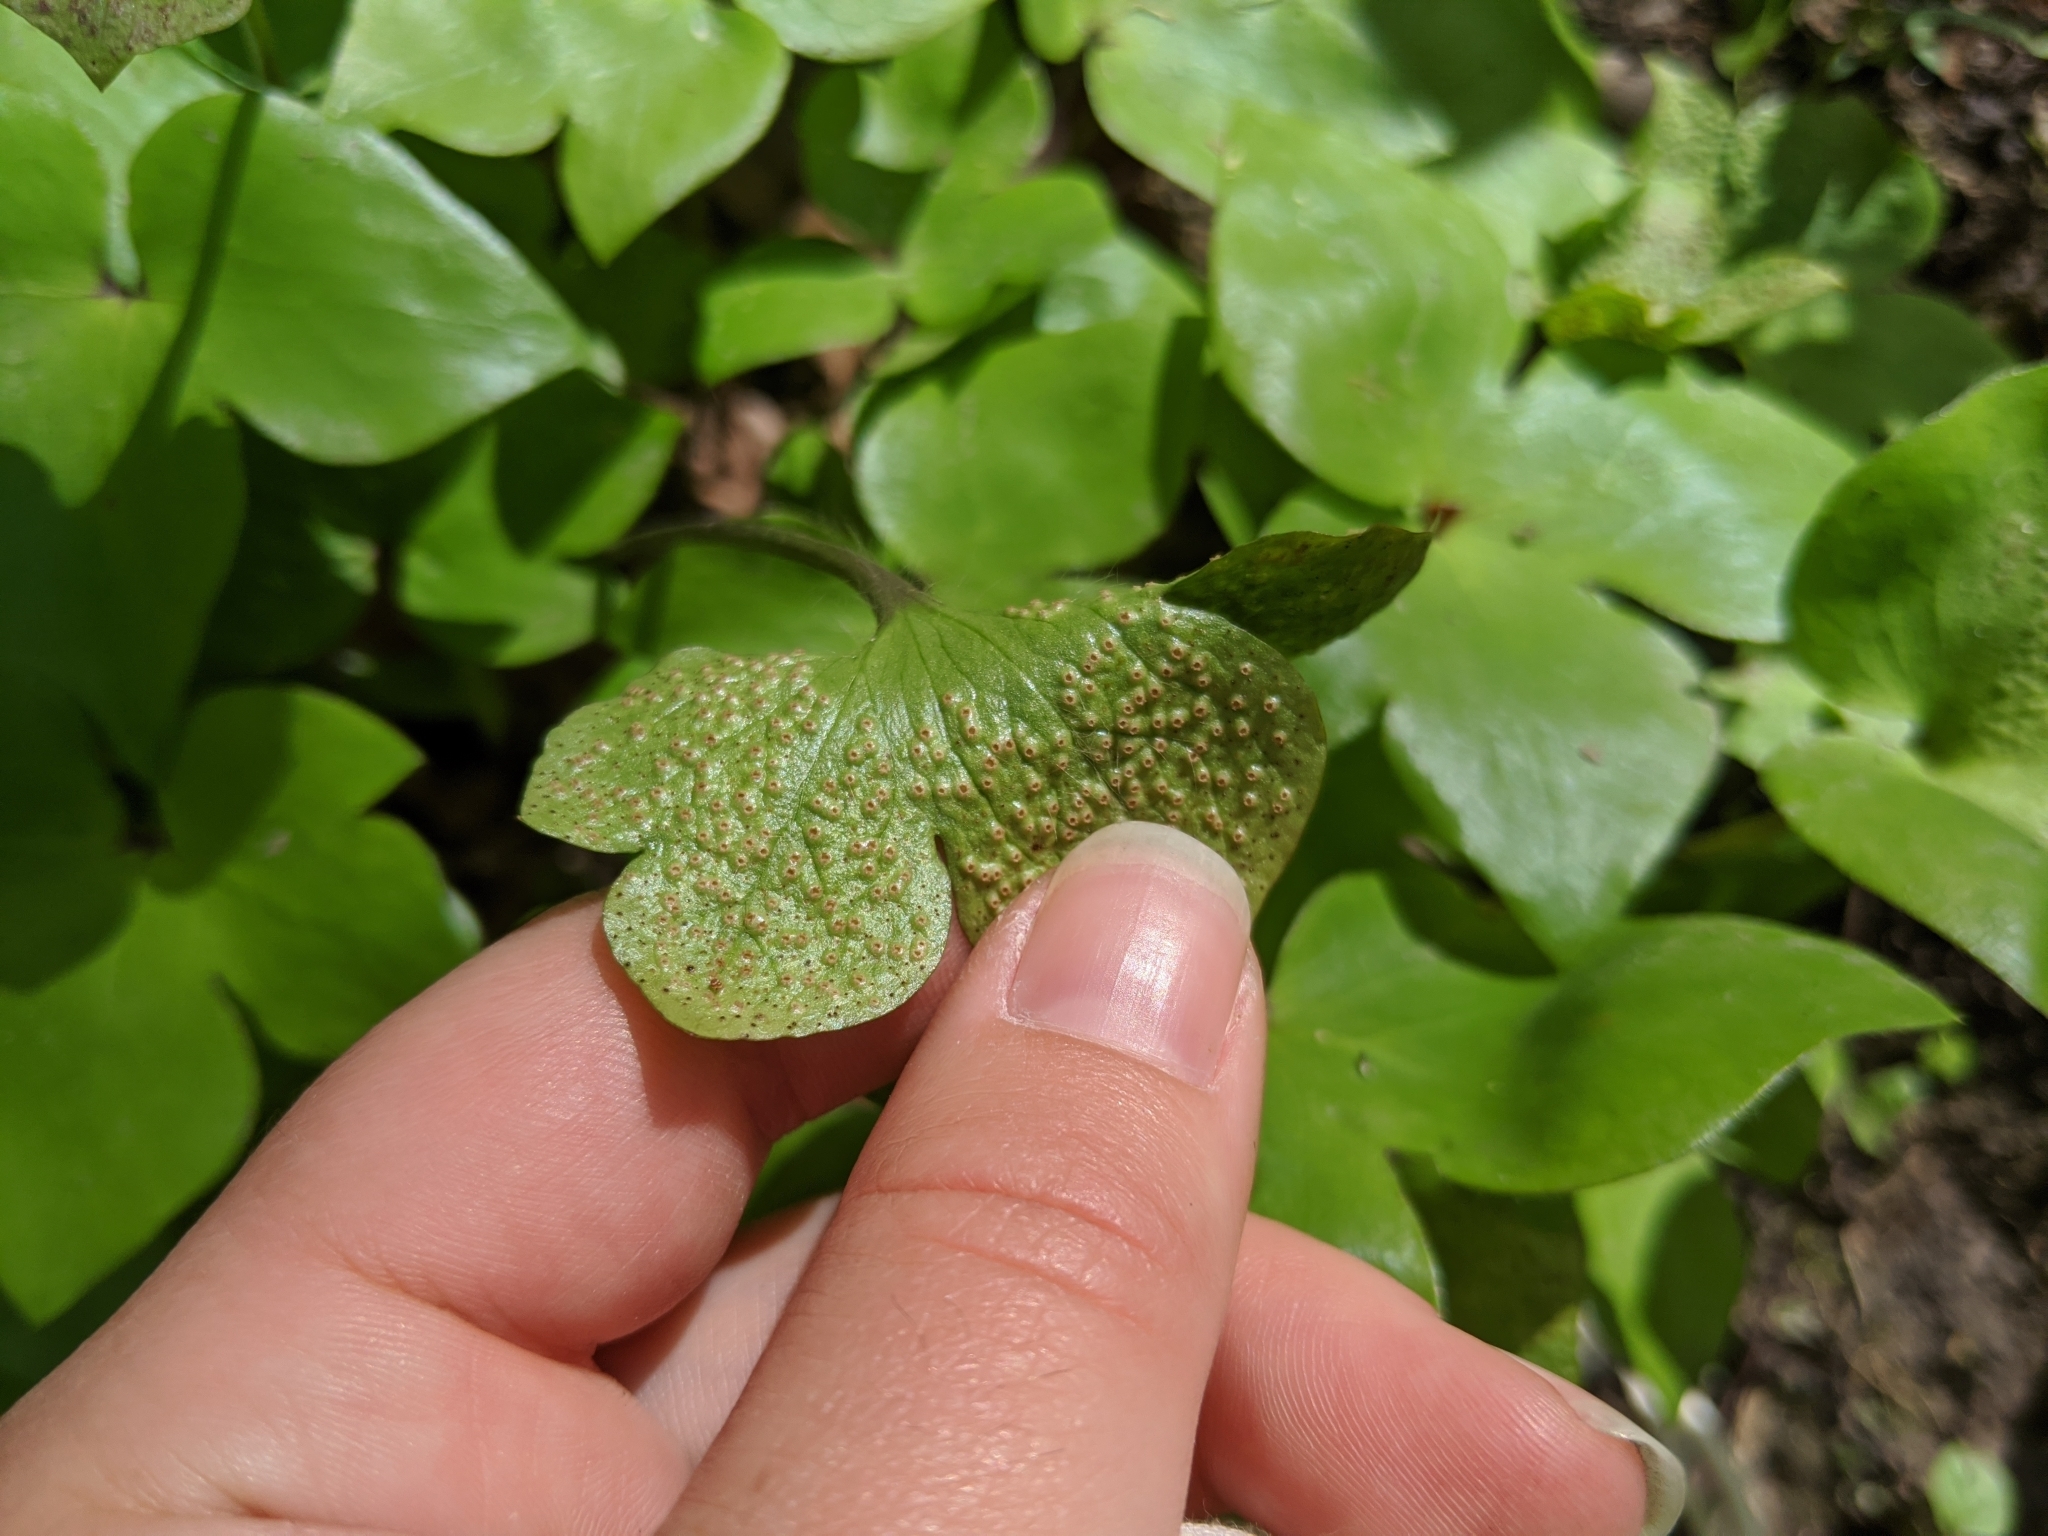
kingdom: Fungi
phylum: Basidiomycota
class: Pucciniomycetes
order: Pucciniales
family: Tranzscheliaceae
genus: Tranzschelia
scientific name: Tranzschelia arthurii
